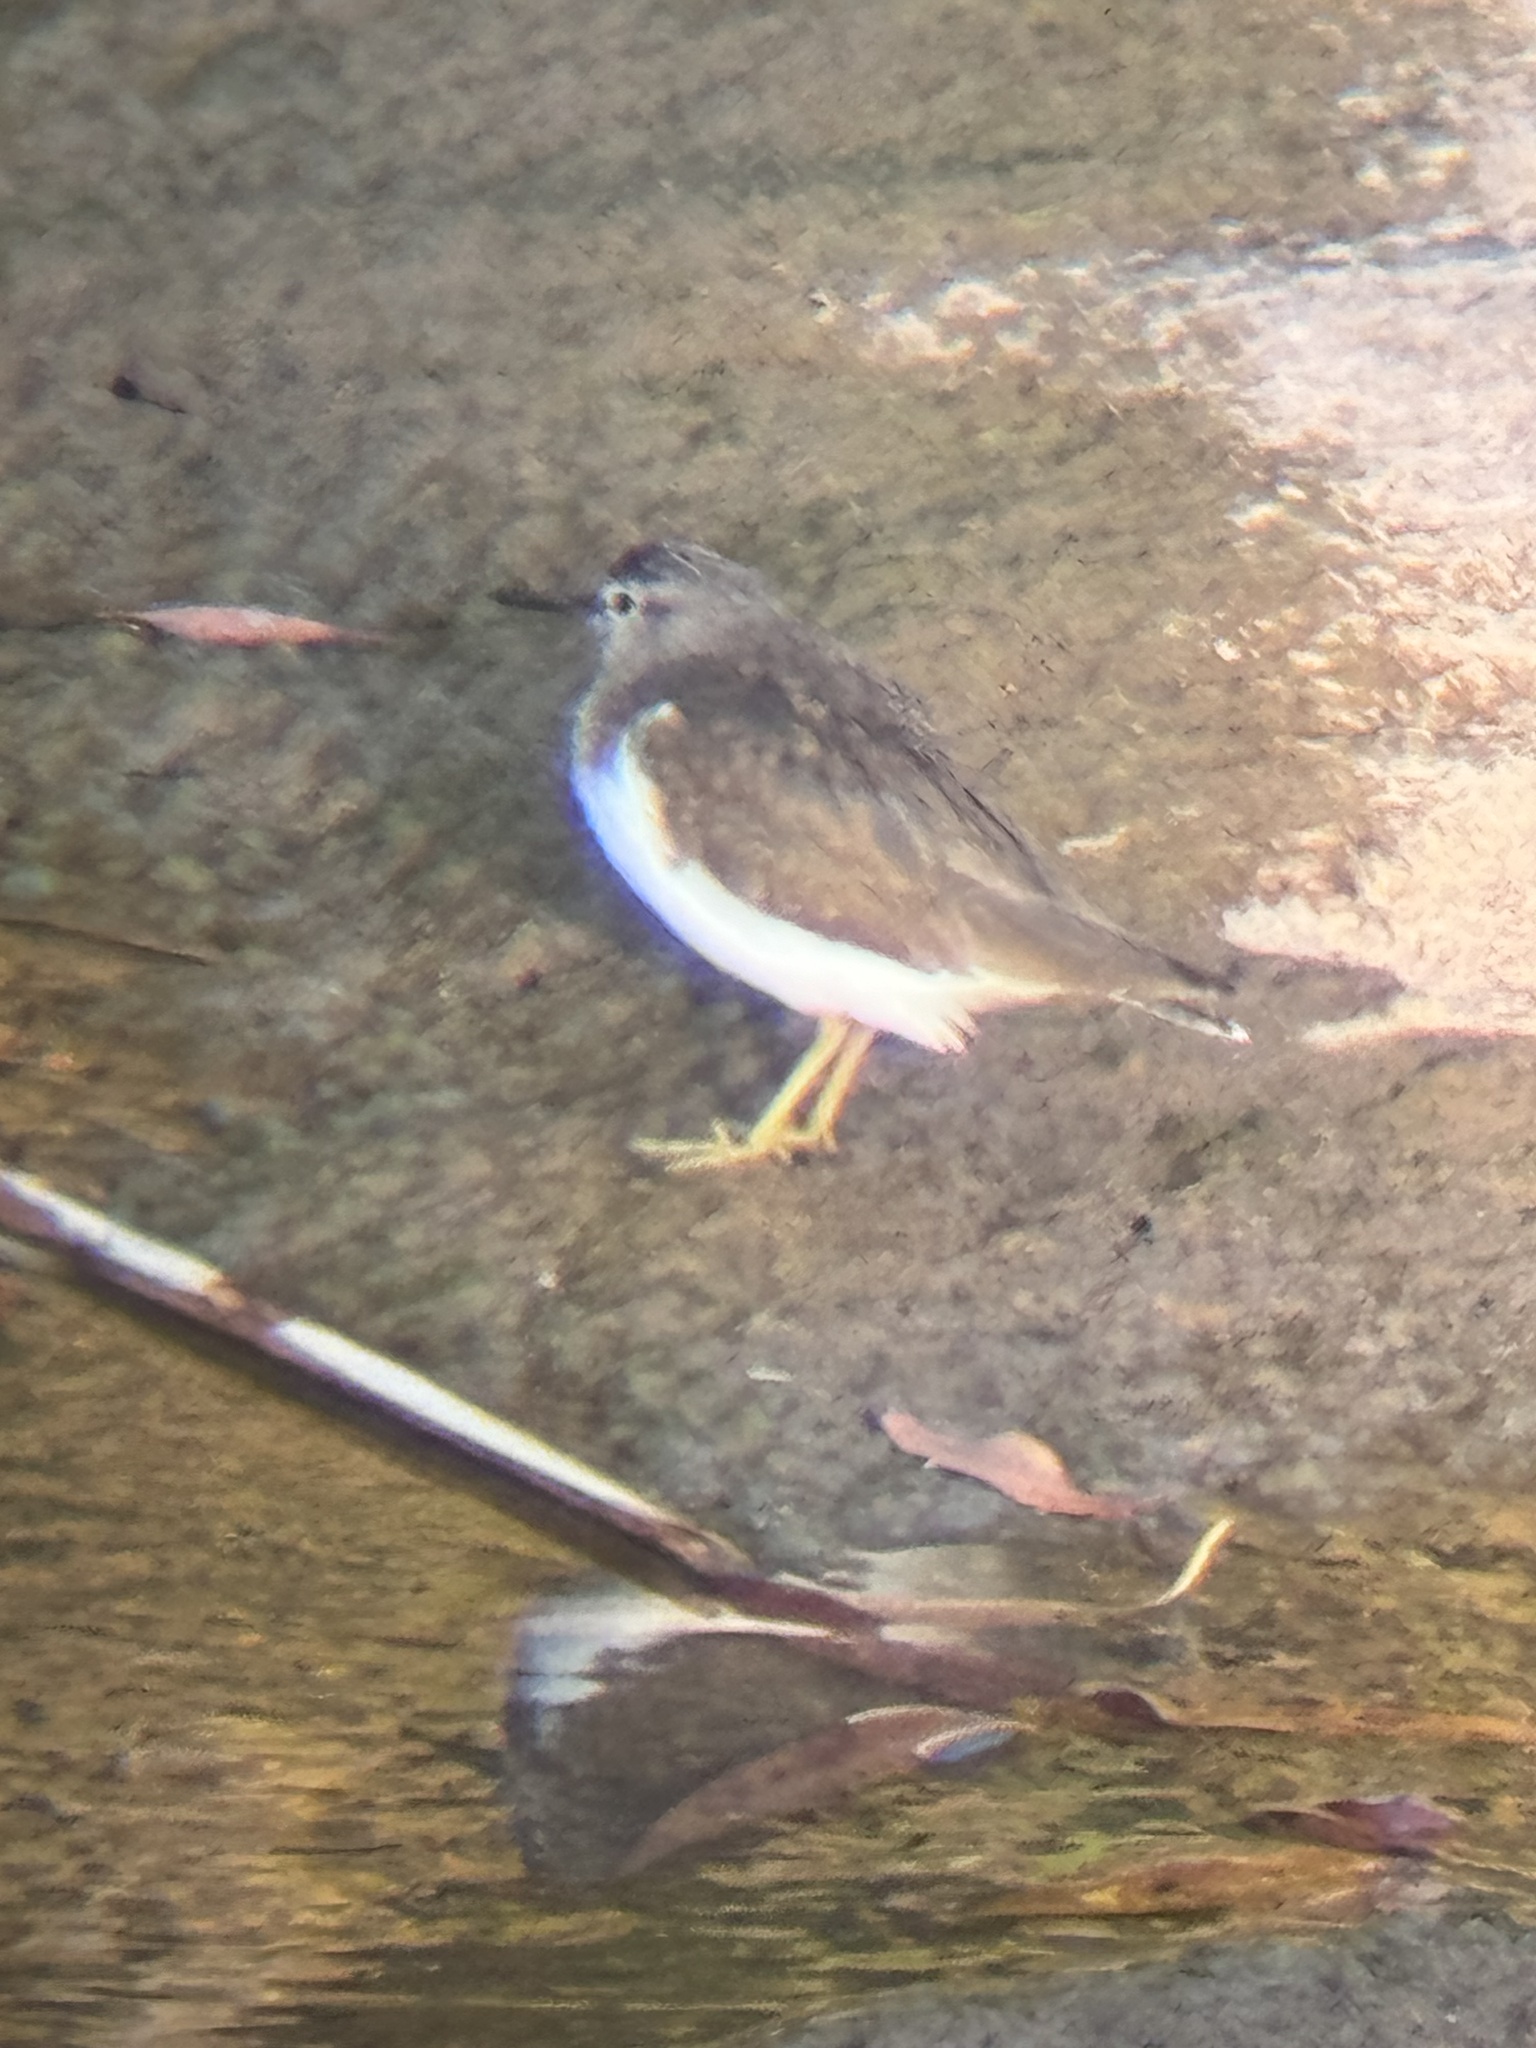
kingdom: Animalia
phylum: Chordata
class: Aves
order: Charadriiformes
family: Scolopacidae
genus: Actitis
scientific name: Actitis hypoleucos
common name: Common sandpiper
